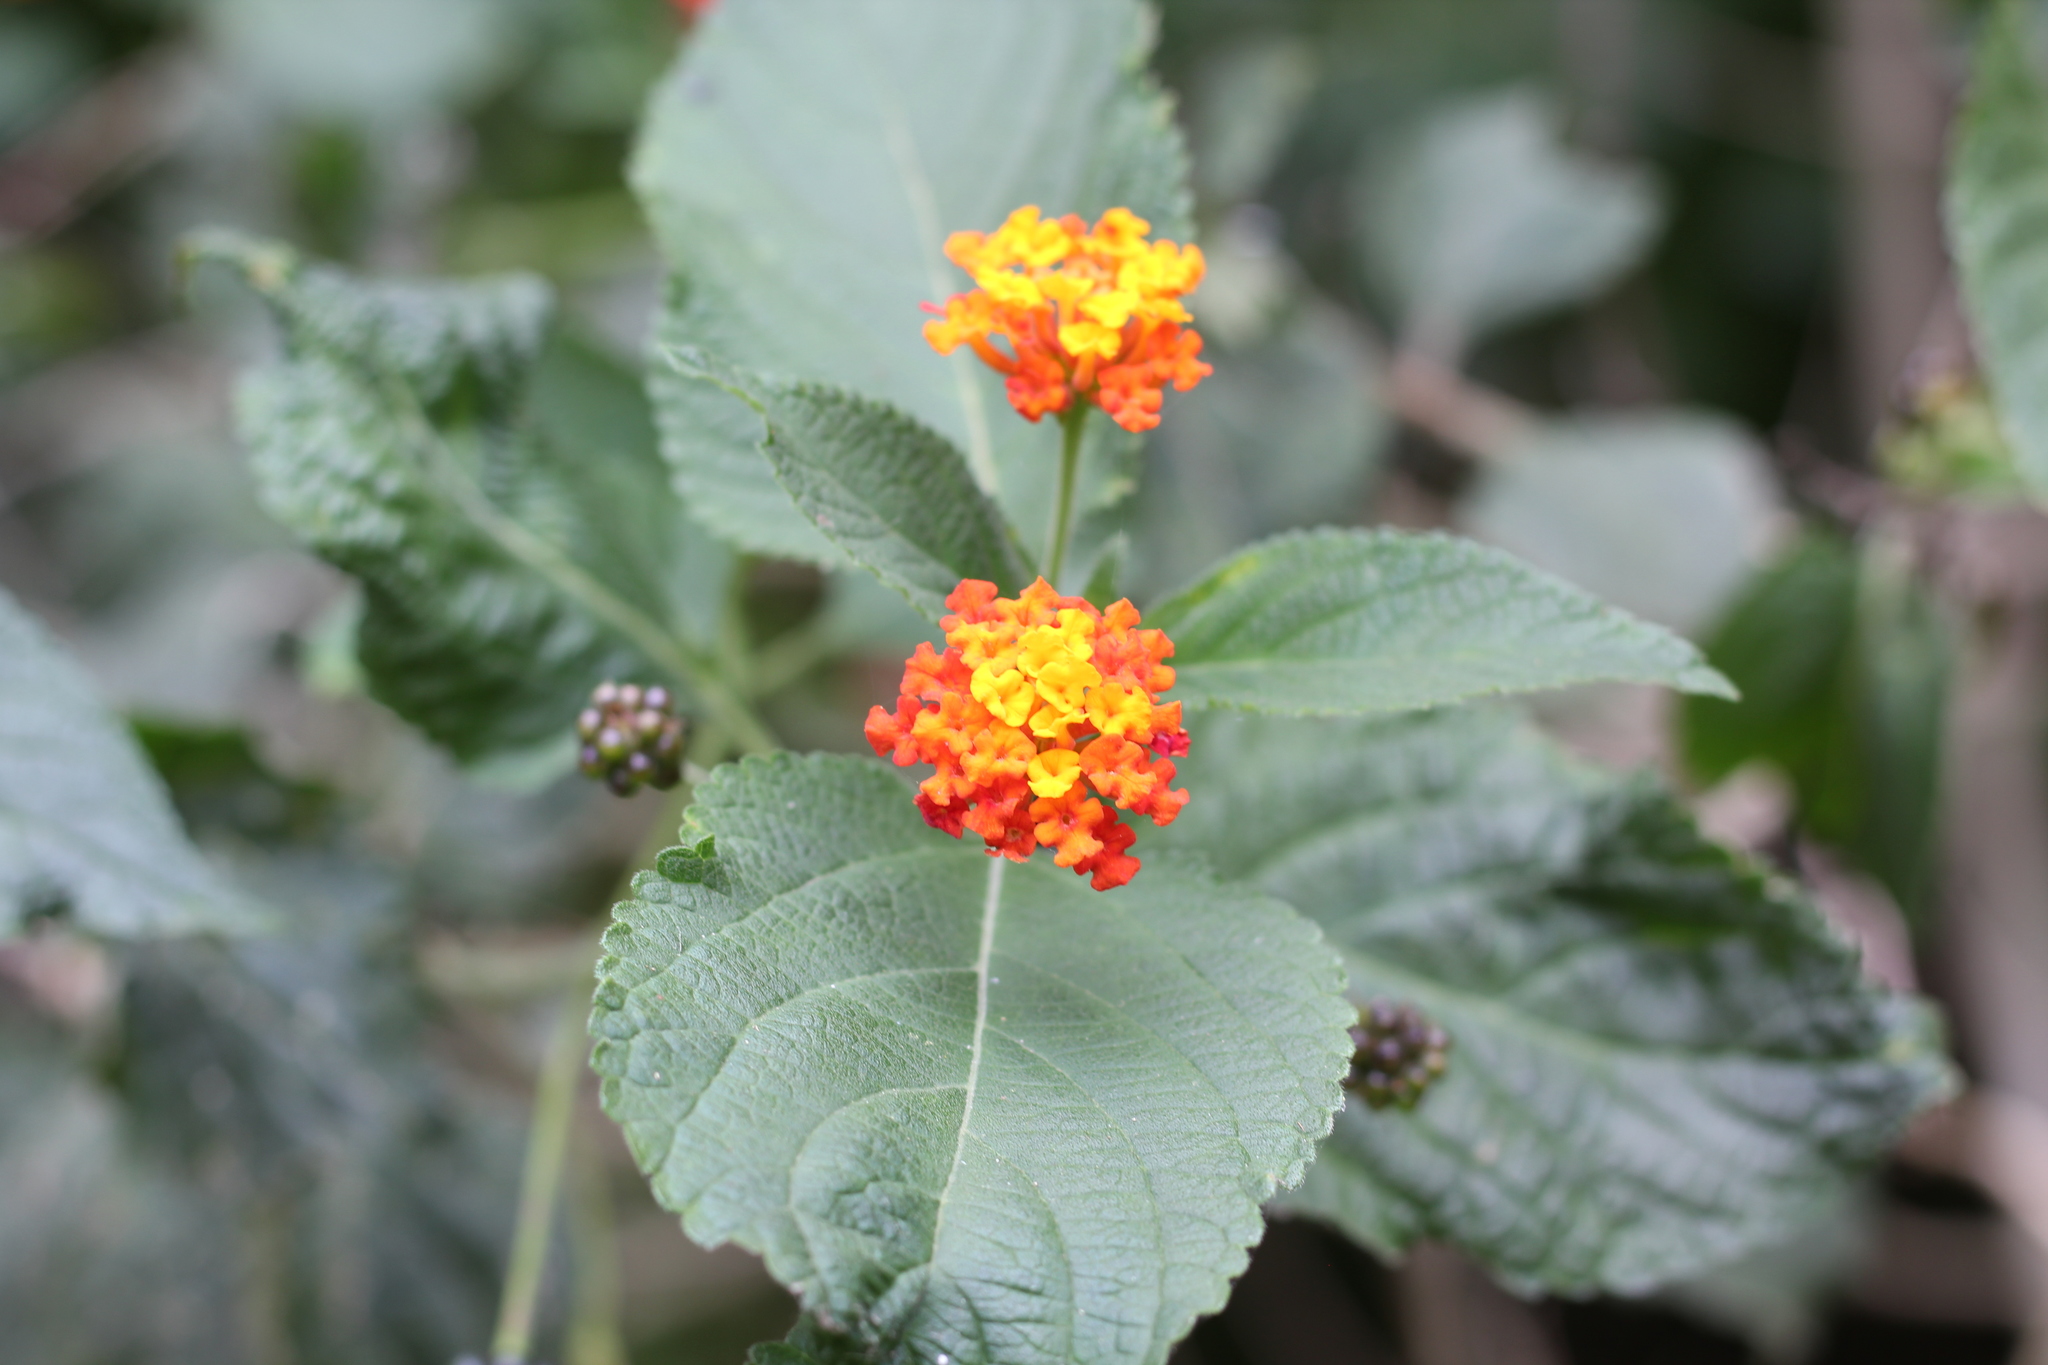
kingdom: Plantae
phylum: Tracheophyta
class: Magnoliopsida
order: Lamiales
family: Verbenaceae
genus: Lantana
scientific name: Lantana camara
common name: Lantana
